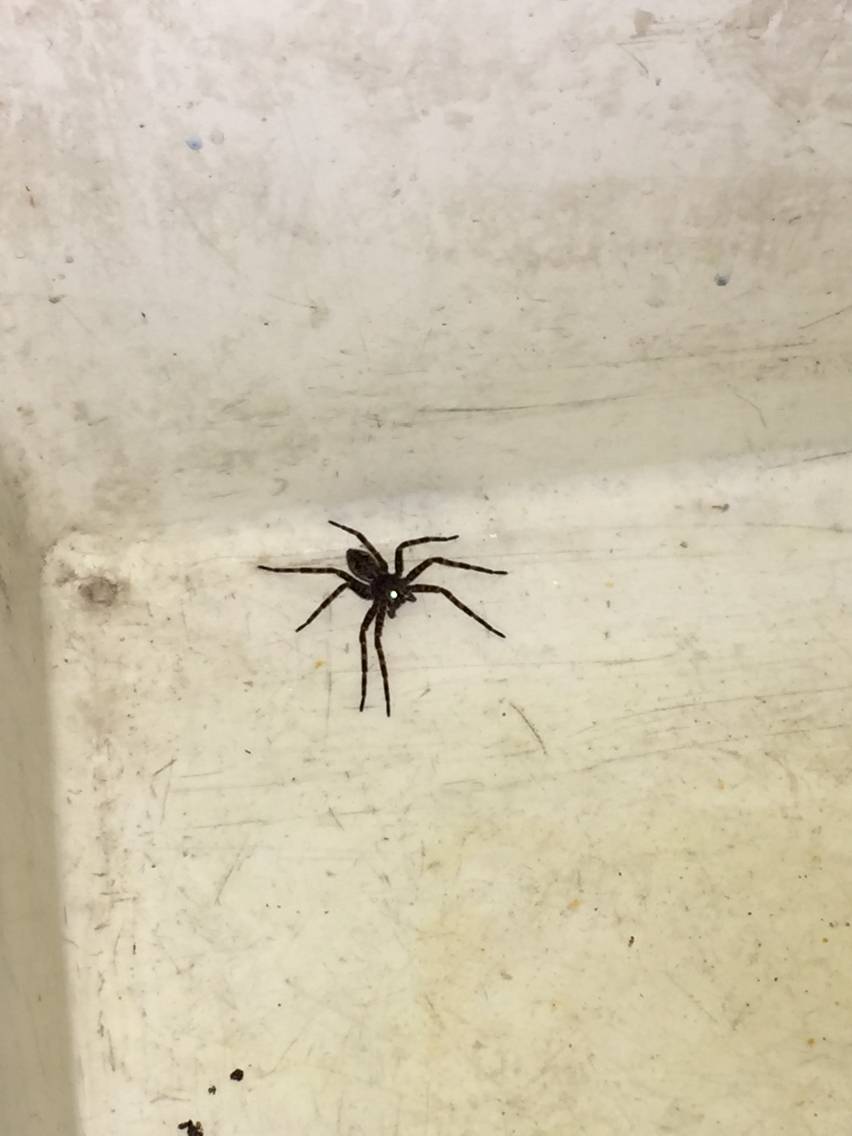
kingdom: Animalia
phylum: Arthropoda
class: Arachnida
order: Araneae
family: Pisauridae
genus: Dolomedes
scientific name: Dolomedes tenebrosus
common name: Dark fishing spider
